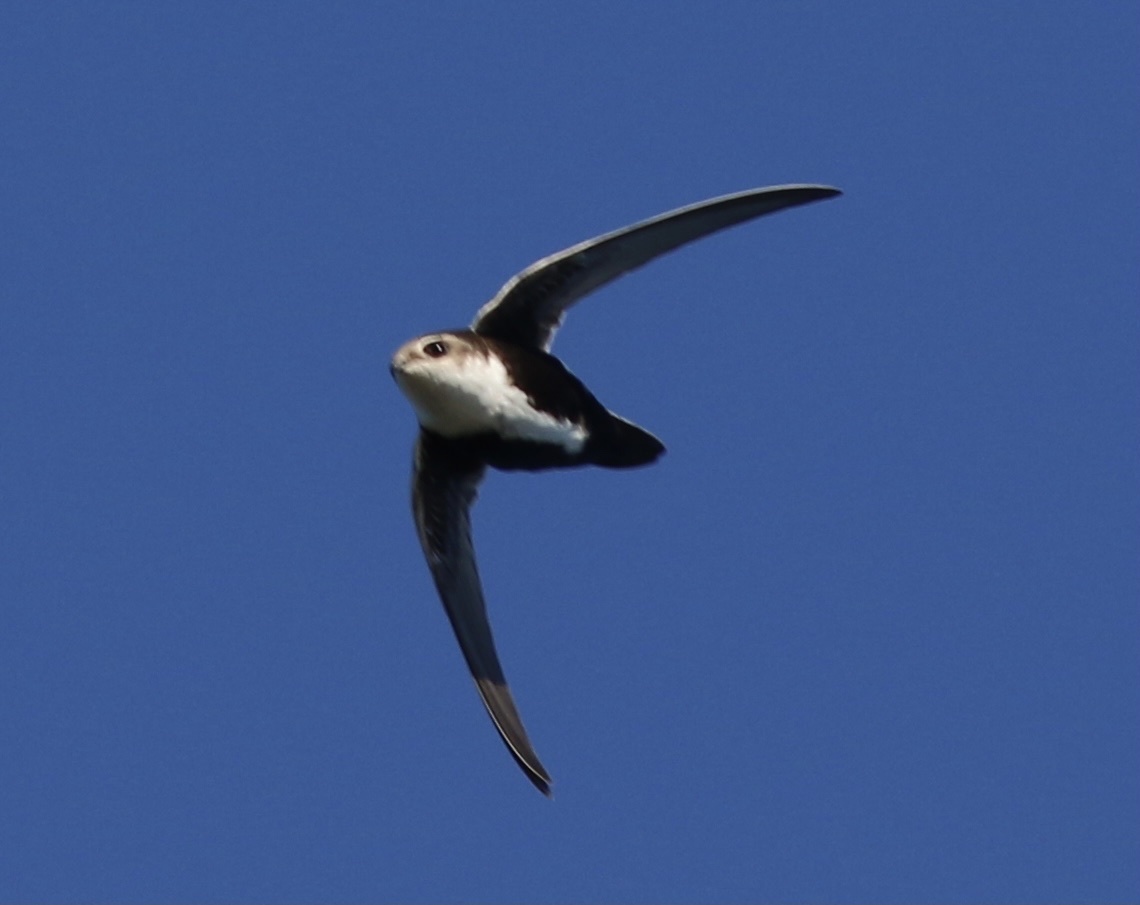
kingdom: Animalia
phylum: Chordata
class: Aves
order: Apodiformes
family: Apodidae
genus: Aeronautes
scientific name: Aeronautes saxatalis
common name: White-throated swift
